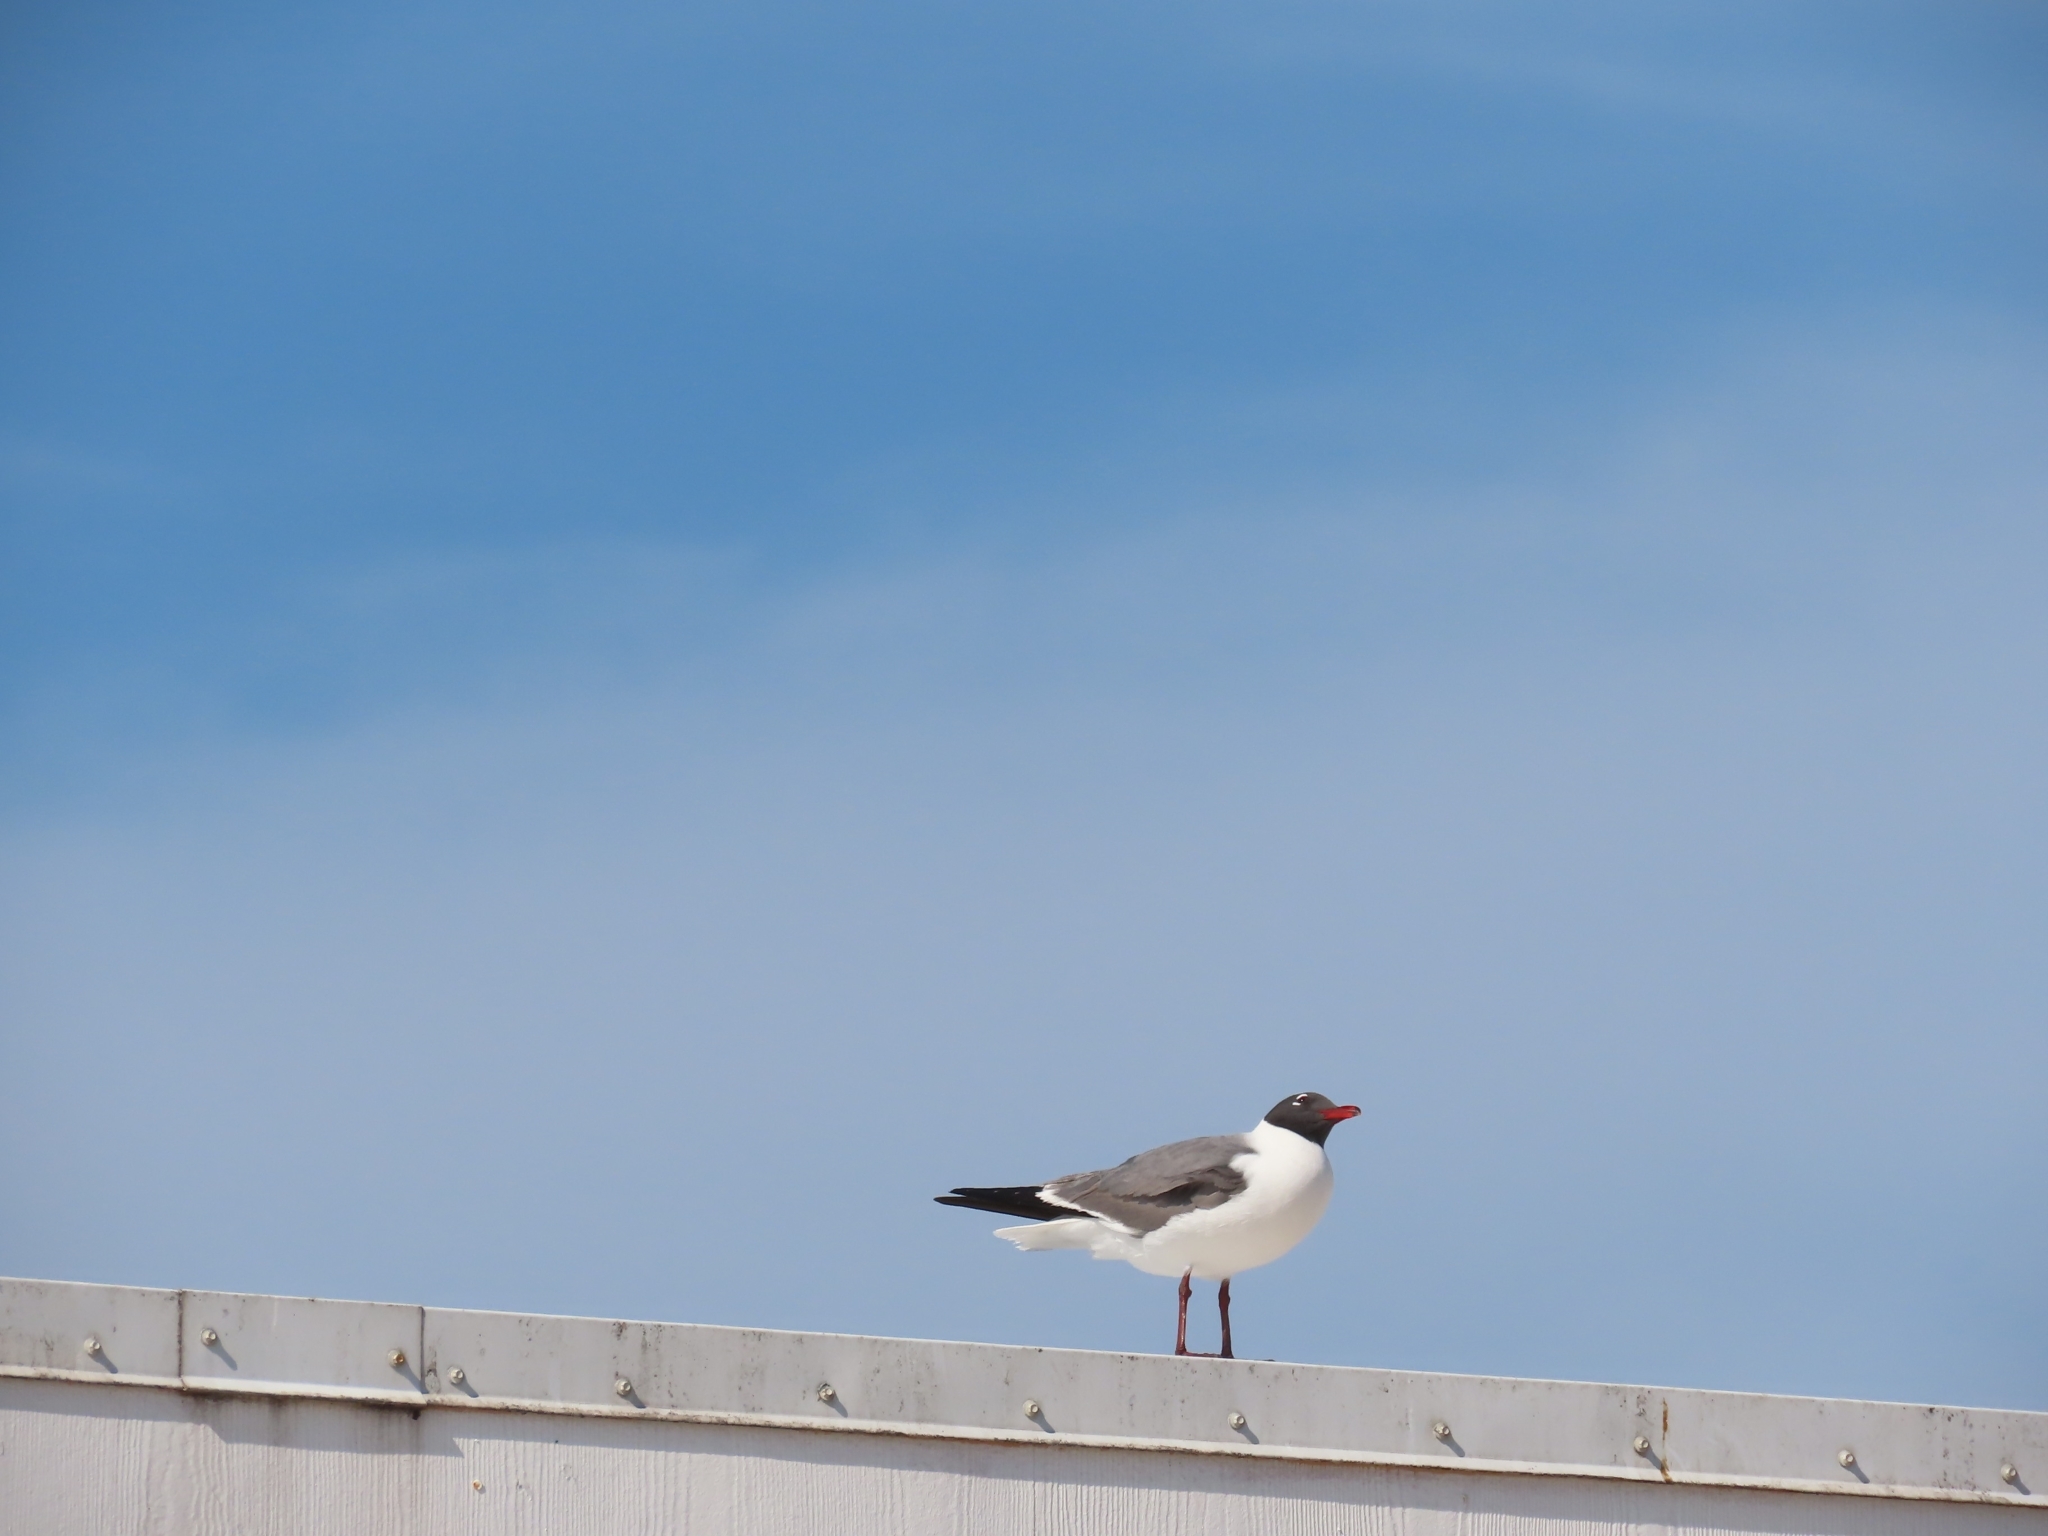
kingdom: Animalia
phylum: Chordata
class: Aves
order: Charadriiformes
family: Laridae
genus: Leucophaeus
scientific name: Leucophaeus atricilla
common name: Laughing gull
